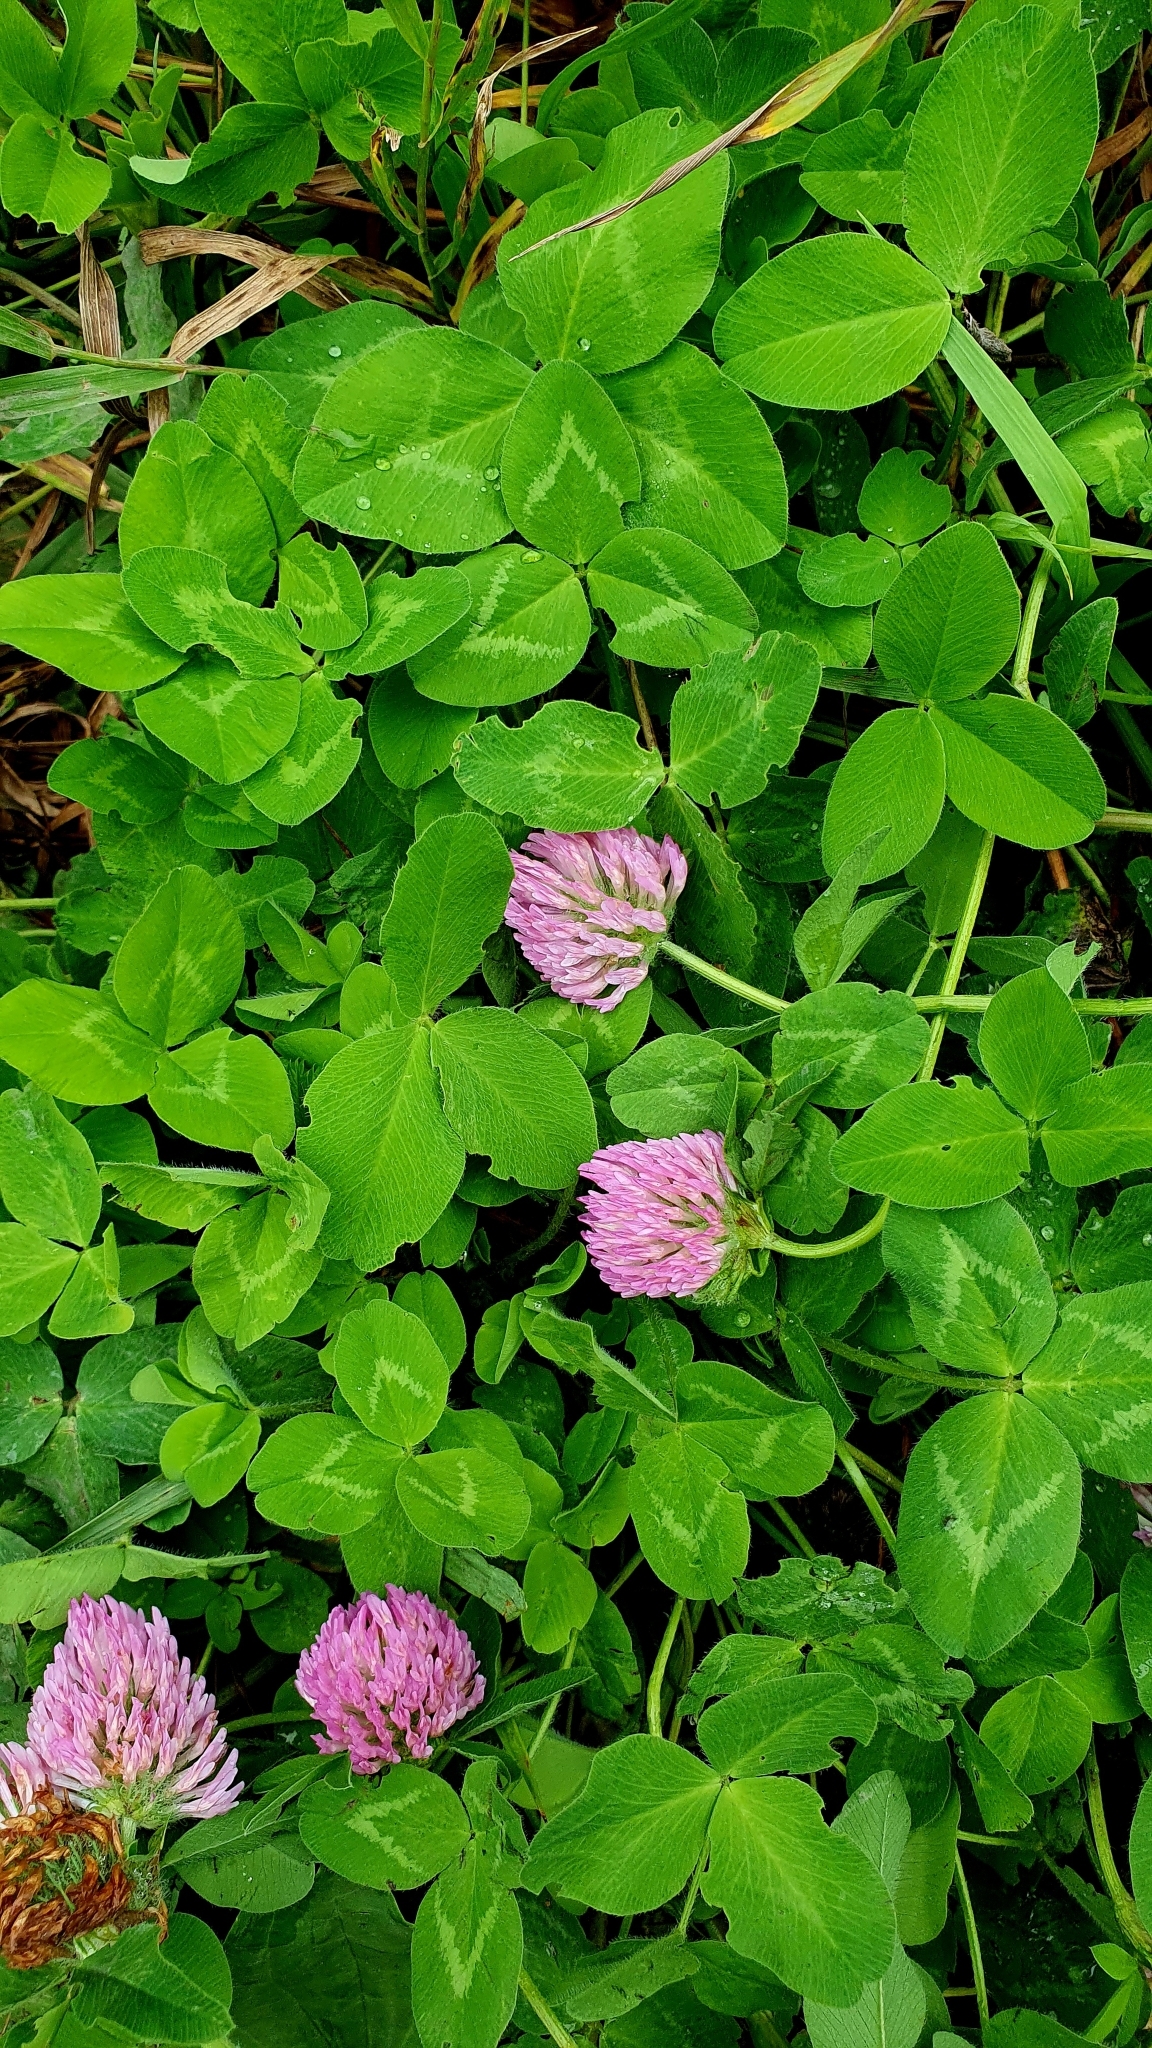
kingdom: Plantae
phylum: Tracheophyta
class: Magnoliopsida
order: Fabales
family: Fabaceae
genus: Trifolium
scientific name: Trifolium pratense
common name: Red clover
